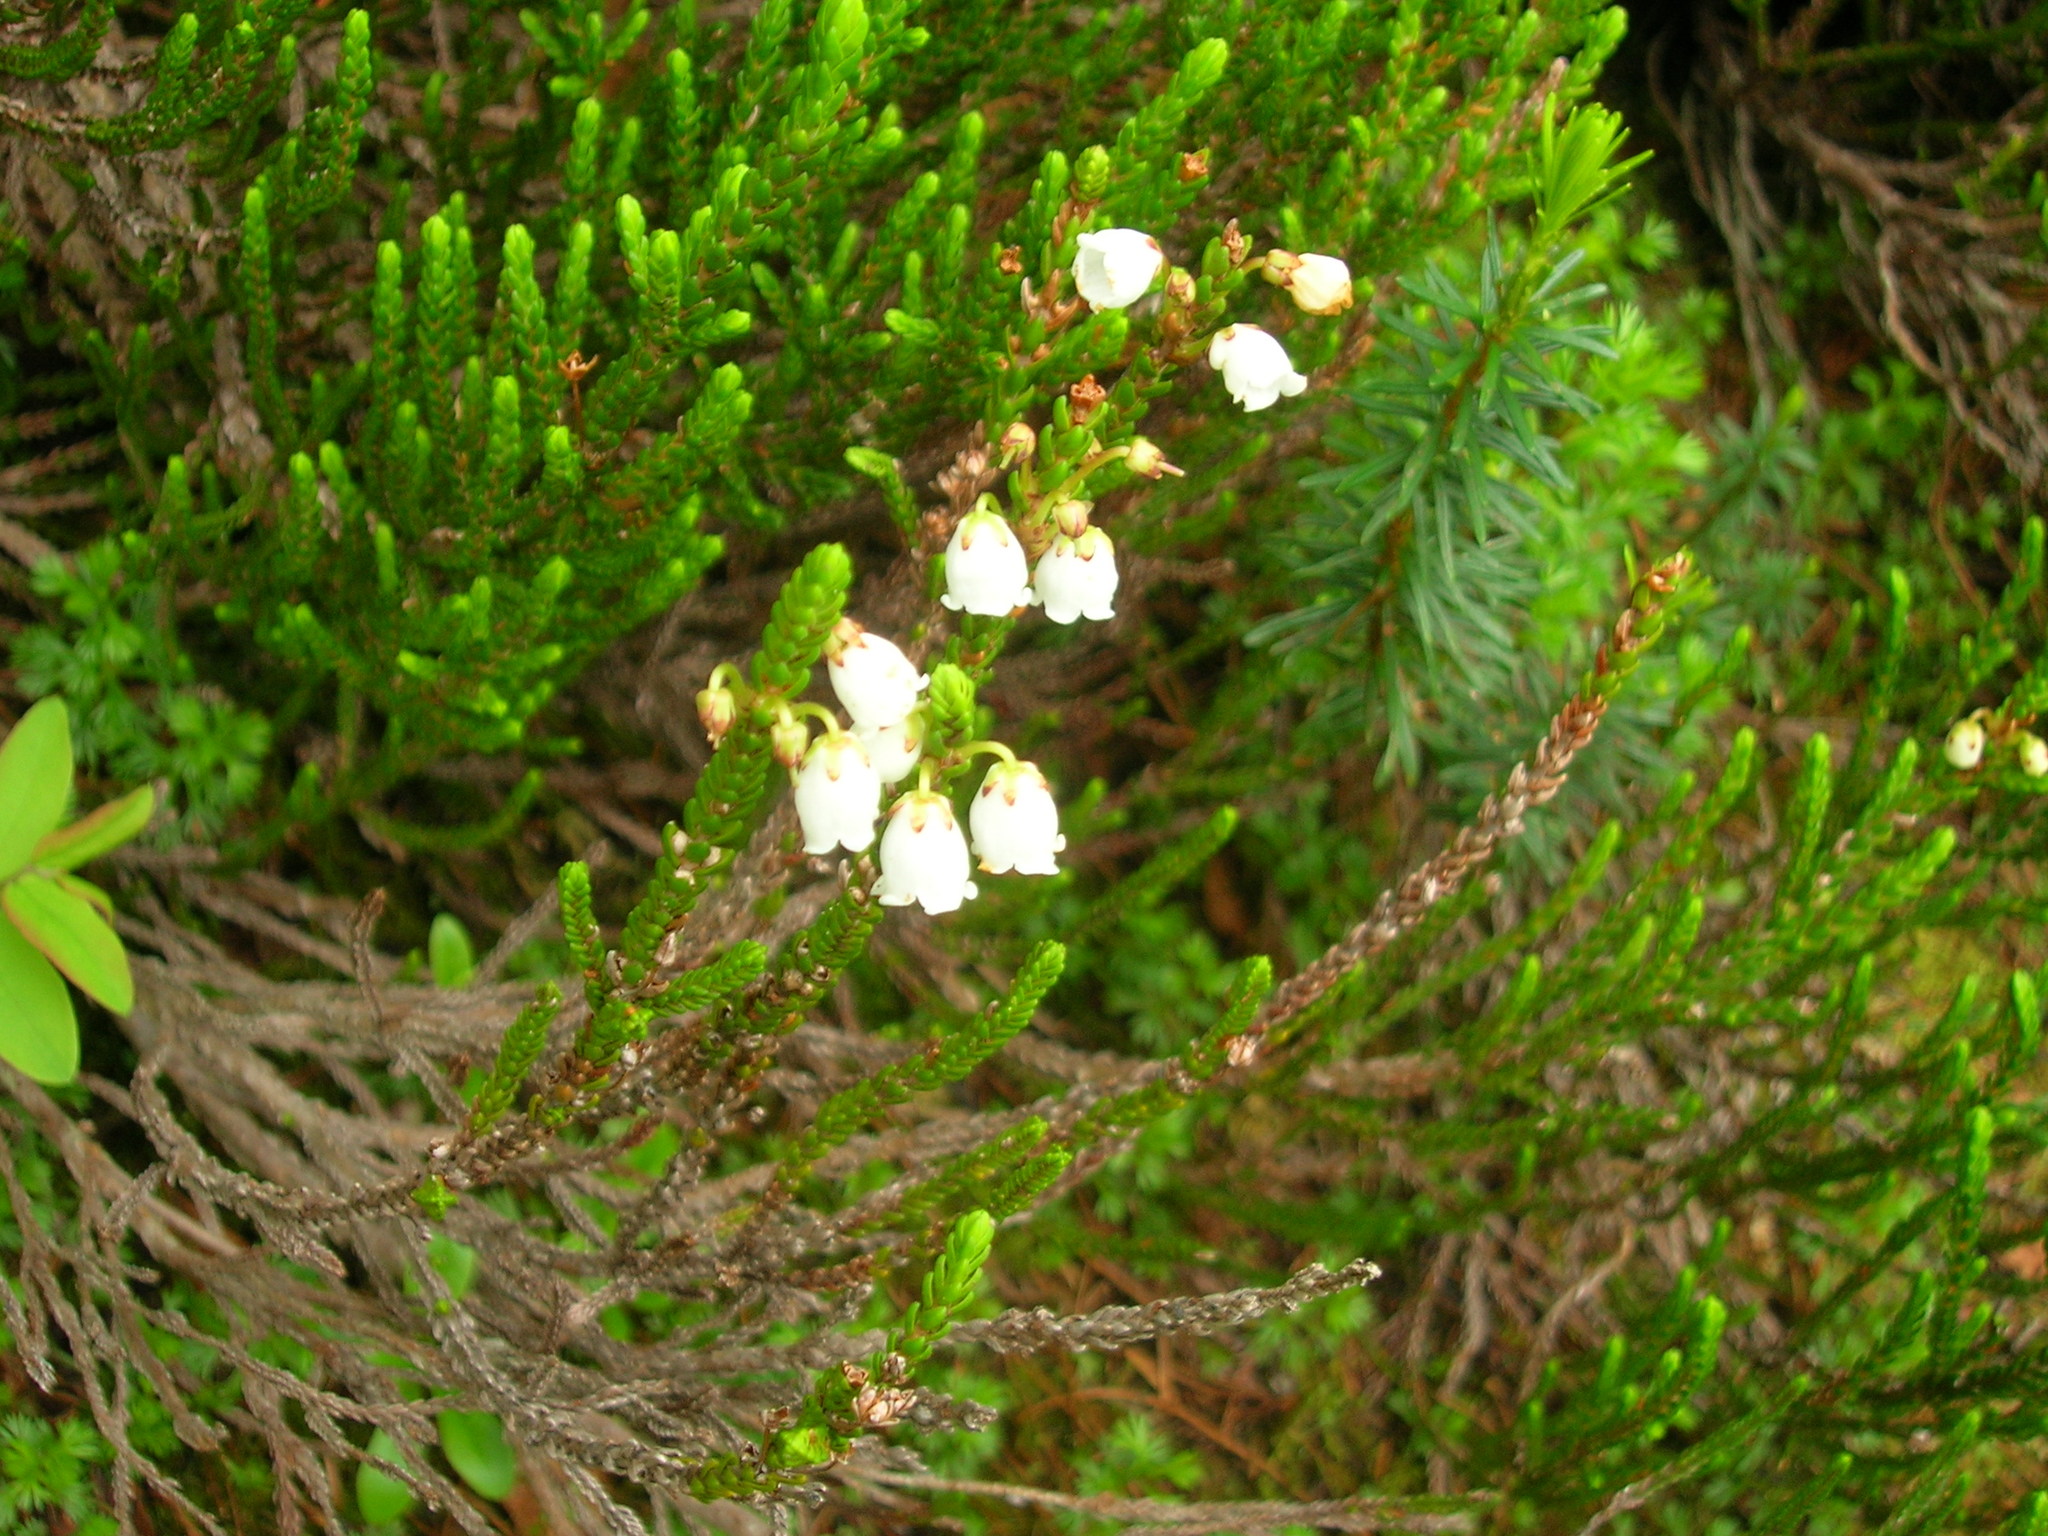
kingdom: Plantae
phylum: Tracheophyta
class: Magnoliopsida
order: Ericales
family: Ericaceae
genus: Cassiope
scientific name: Cassiope mertensiana
